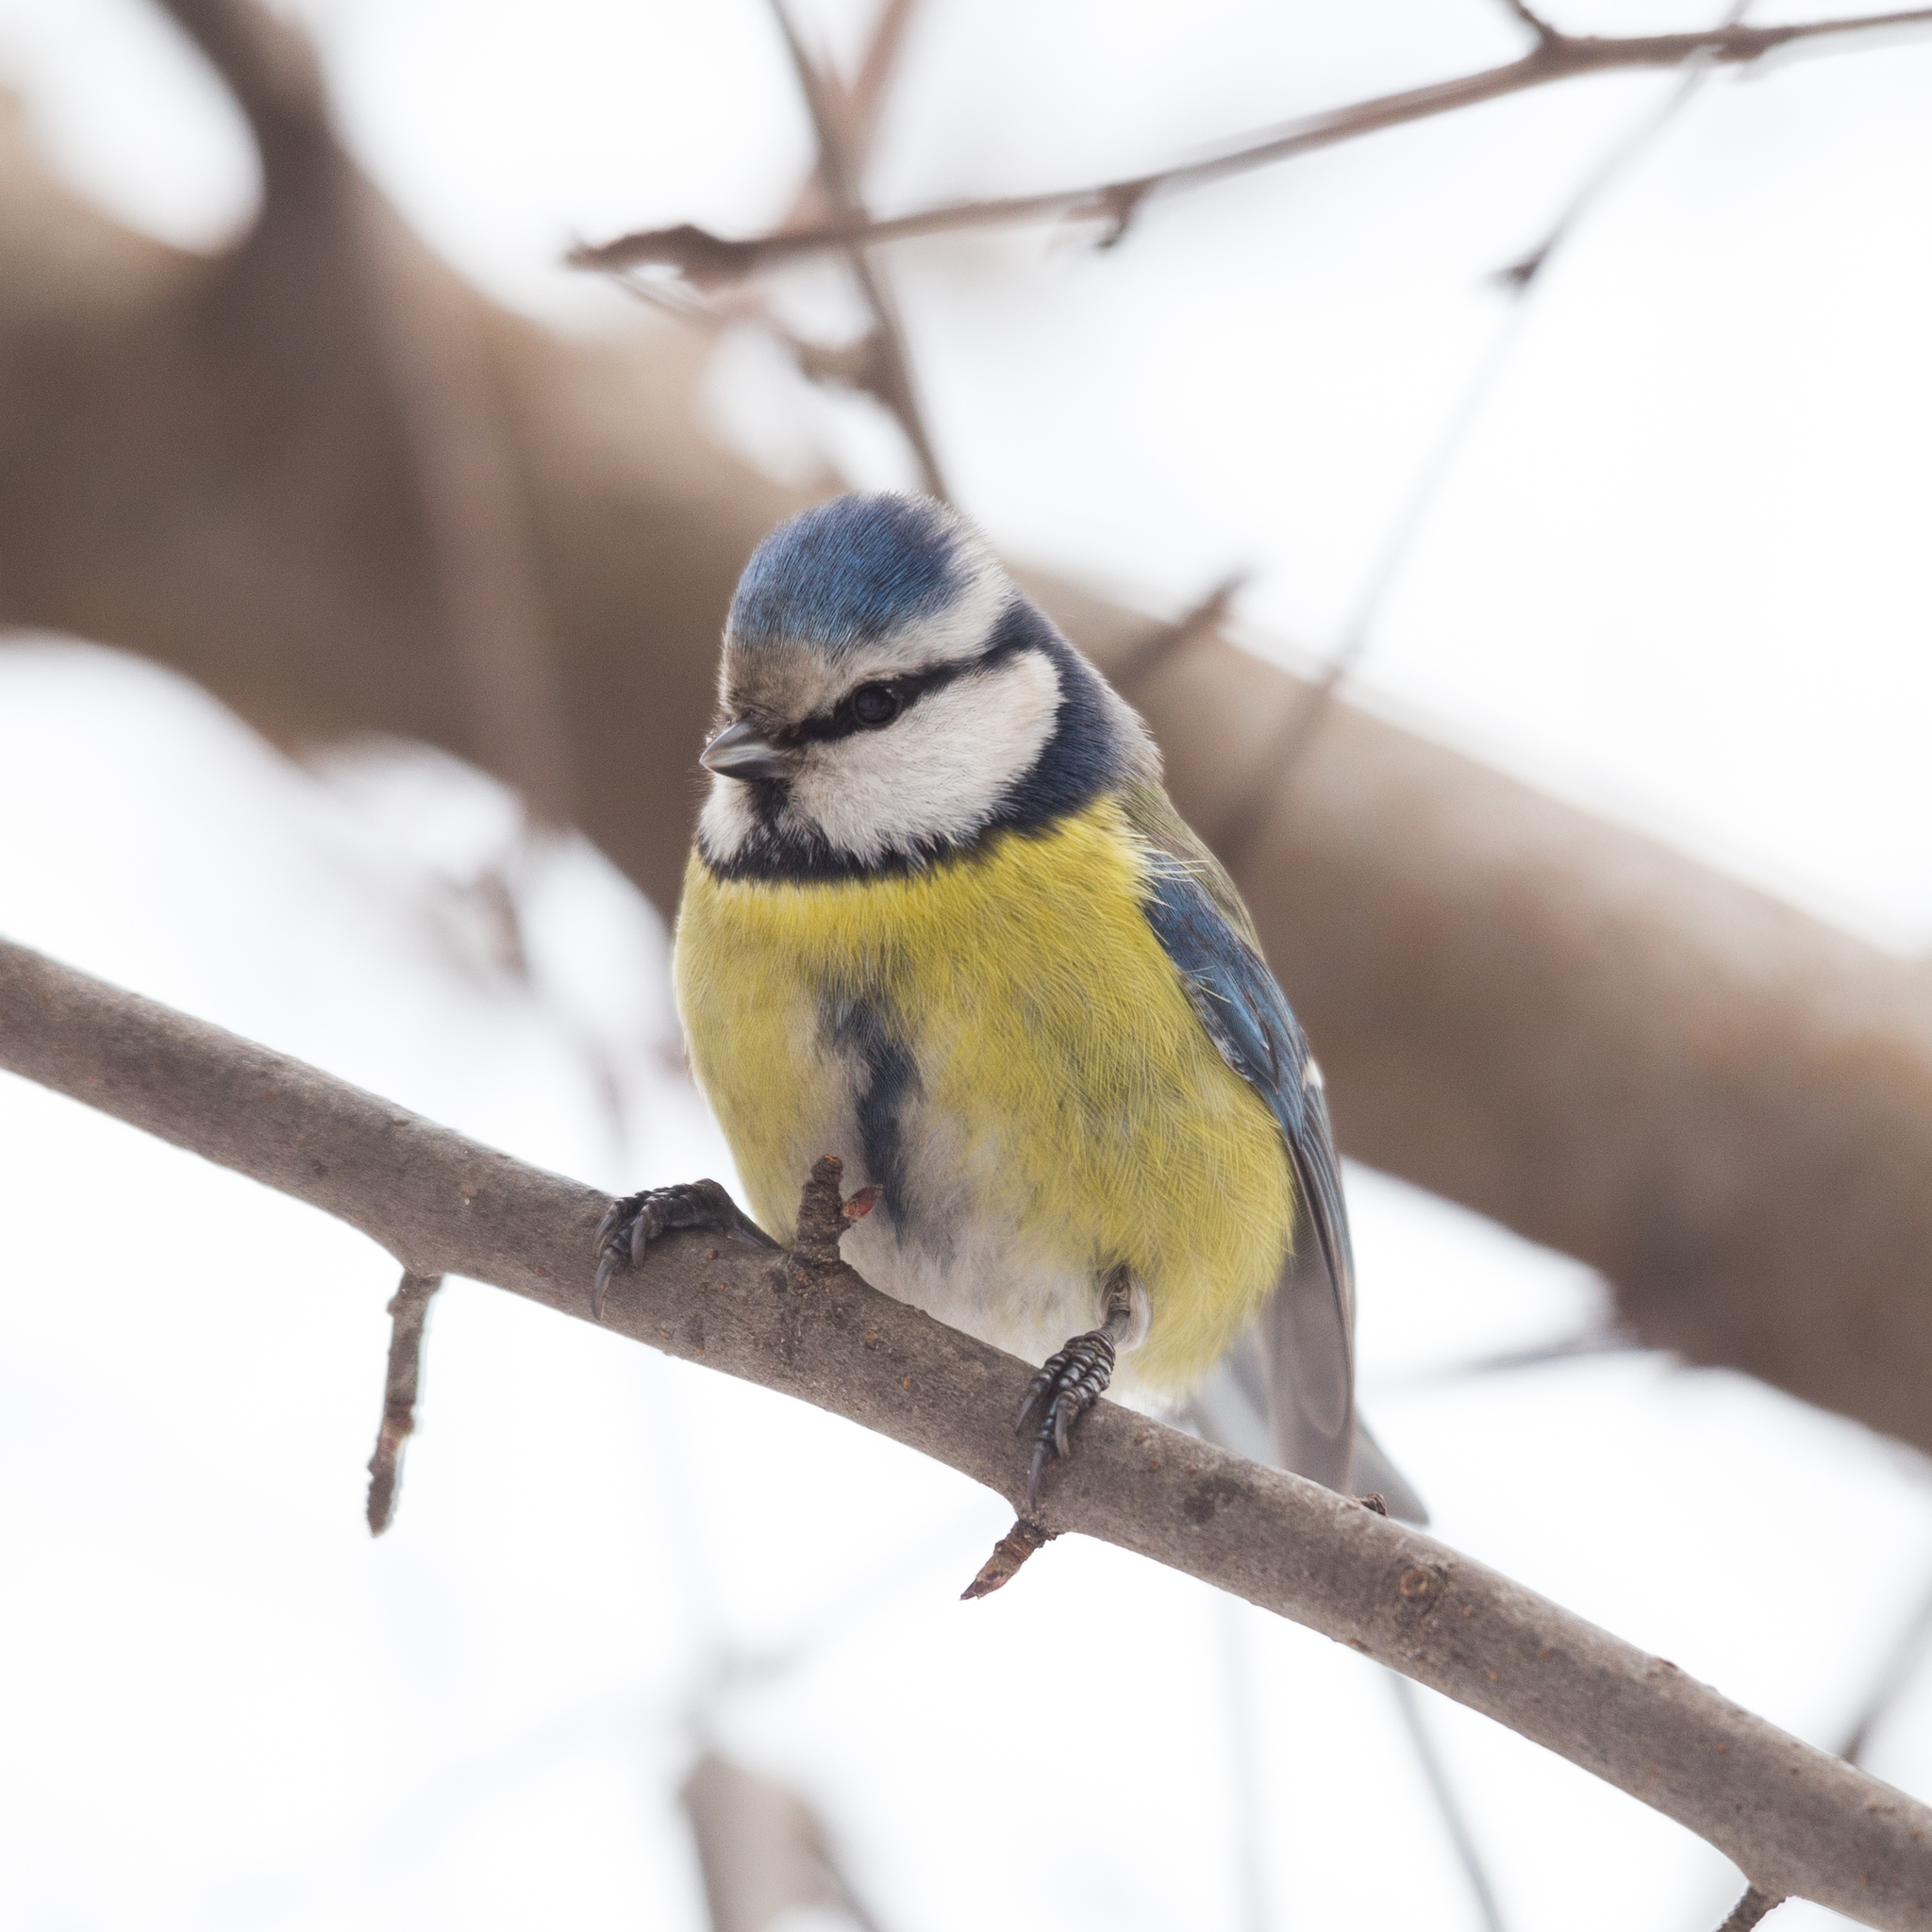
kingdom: Animalia
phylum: Chordata
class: Aves
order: Passeriformes
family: Paridae
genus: Cyanistes
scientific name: Cyanistes caeruleus
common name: Eurasian blue tit
